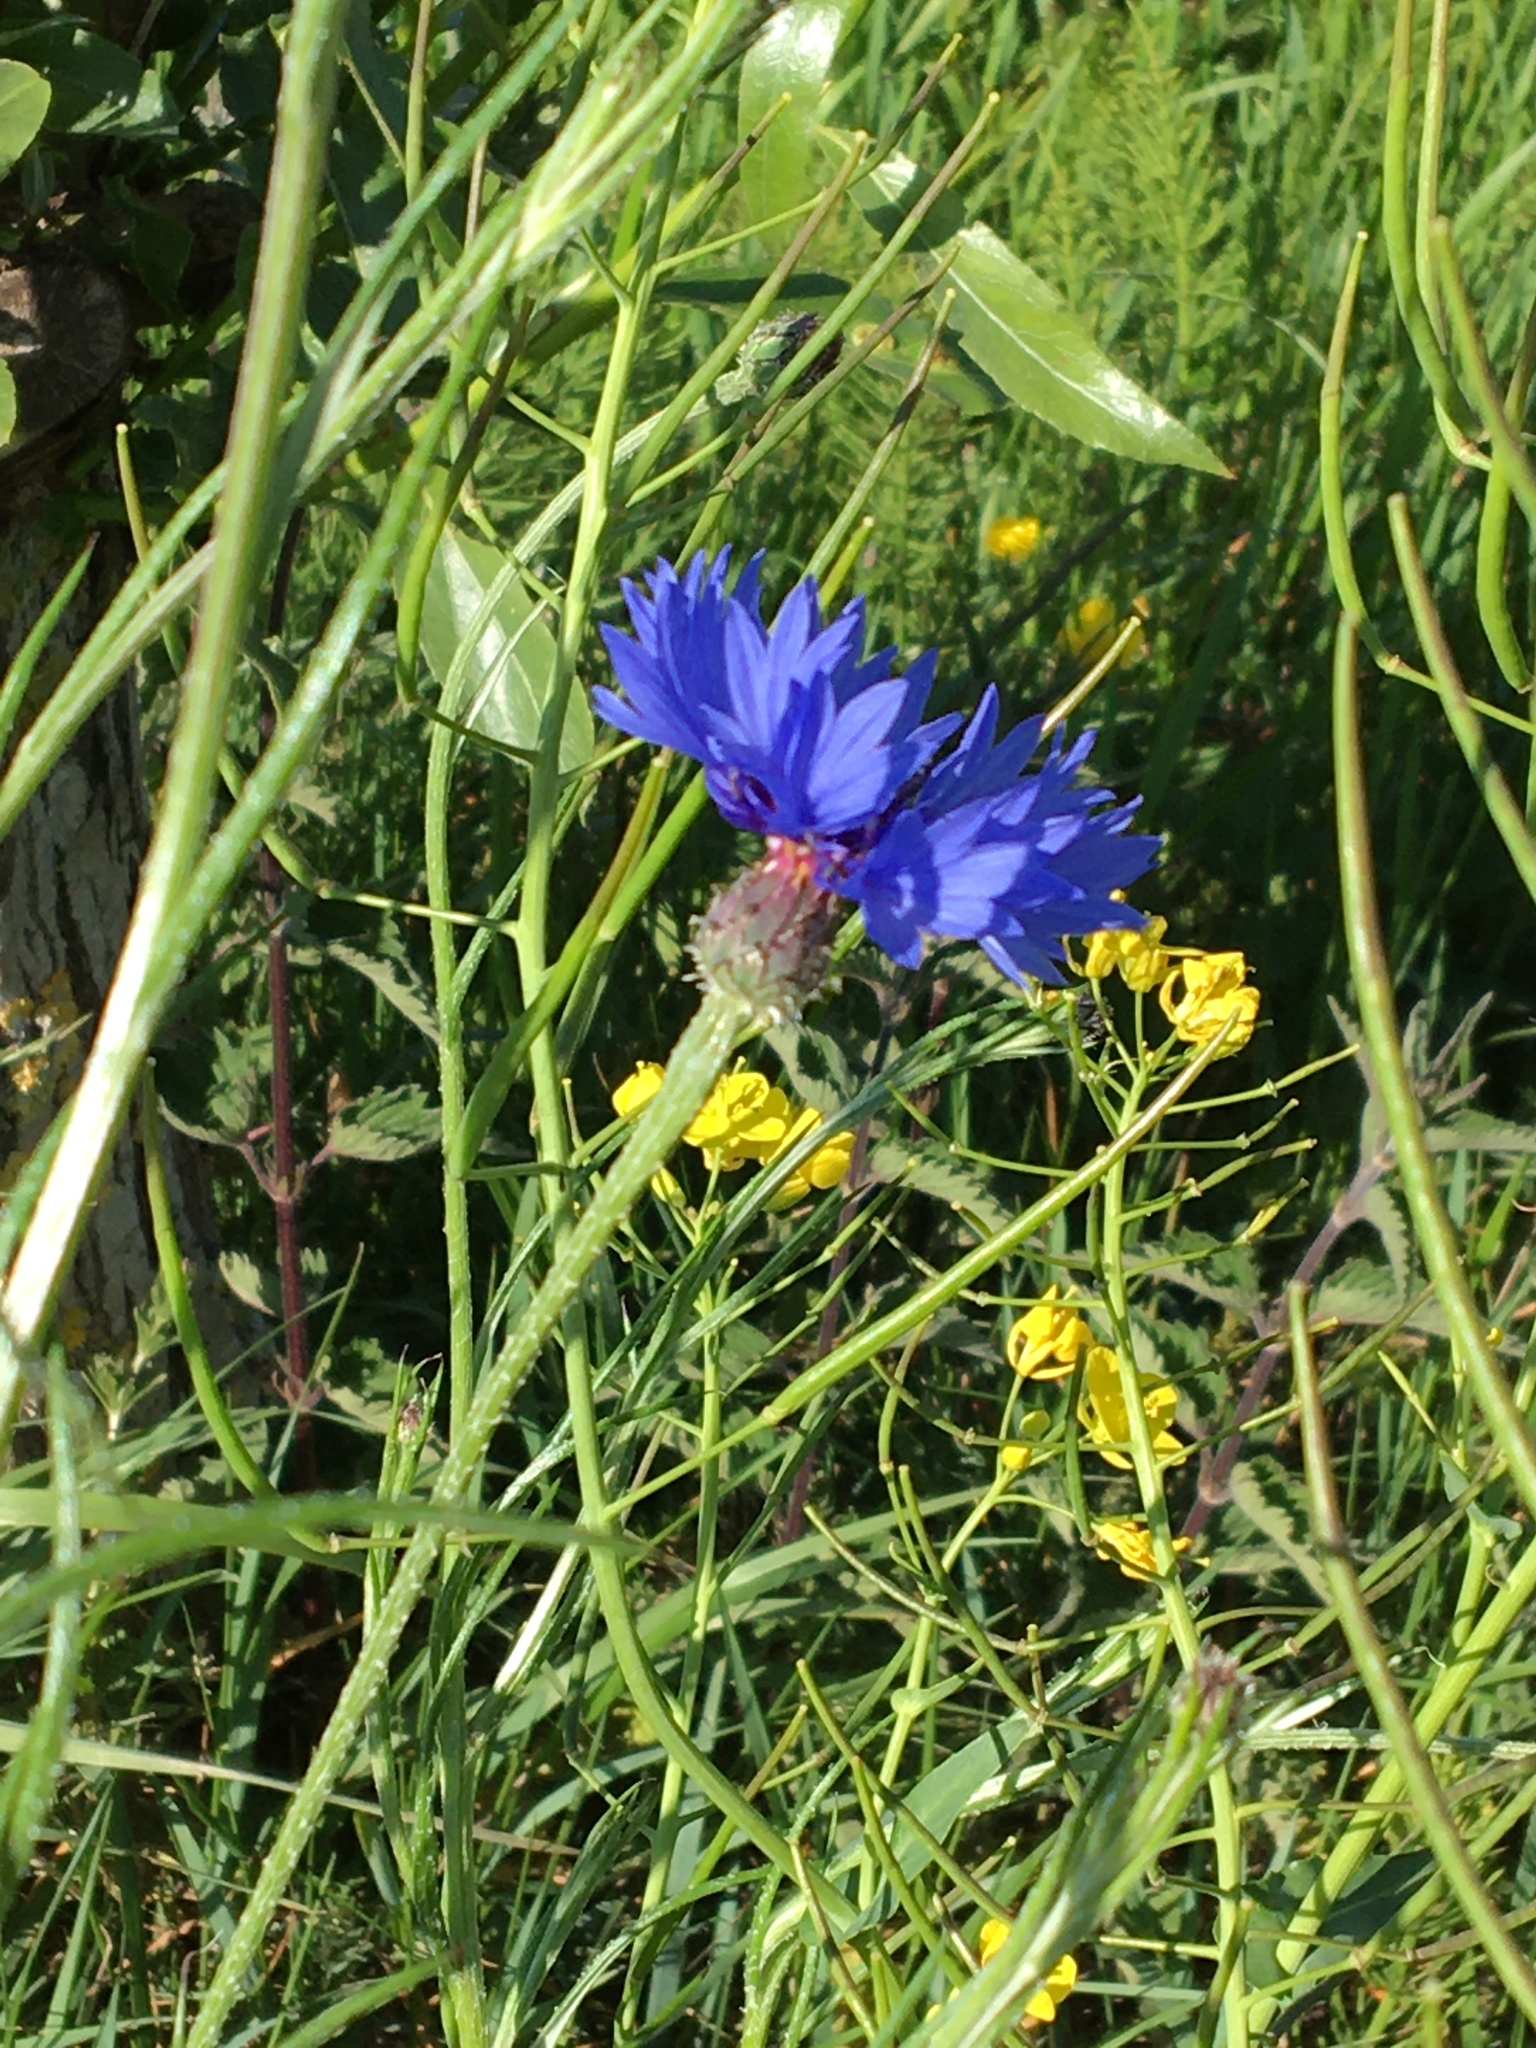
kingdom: Plantae
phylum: Tracheophyta
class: Magnoliopsida
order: Asterales
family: Asteraceae
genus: Centaurea
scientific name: Centaurea cyanus
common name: Cornflower
